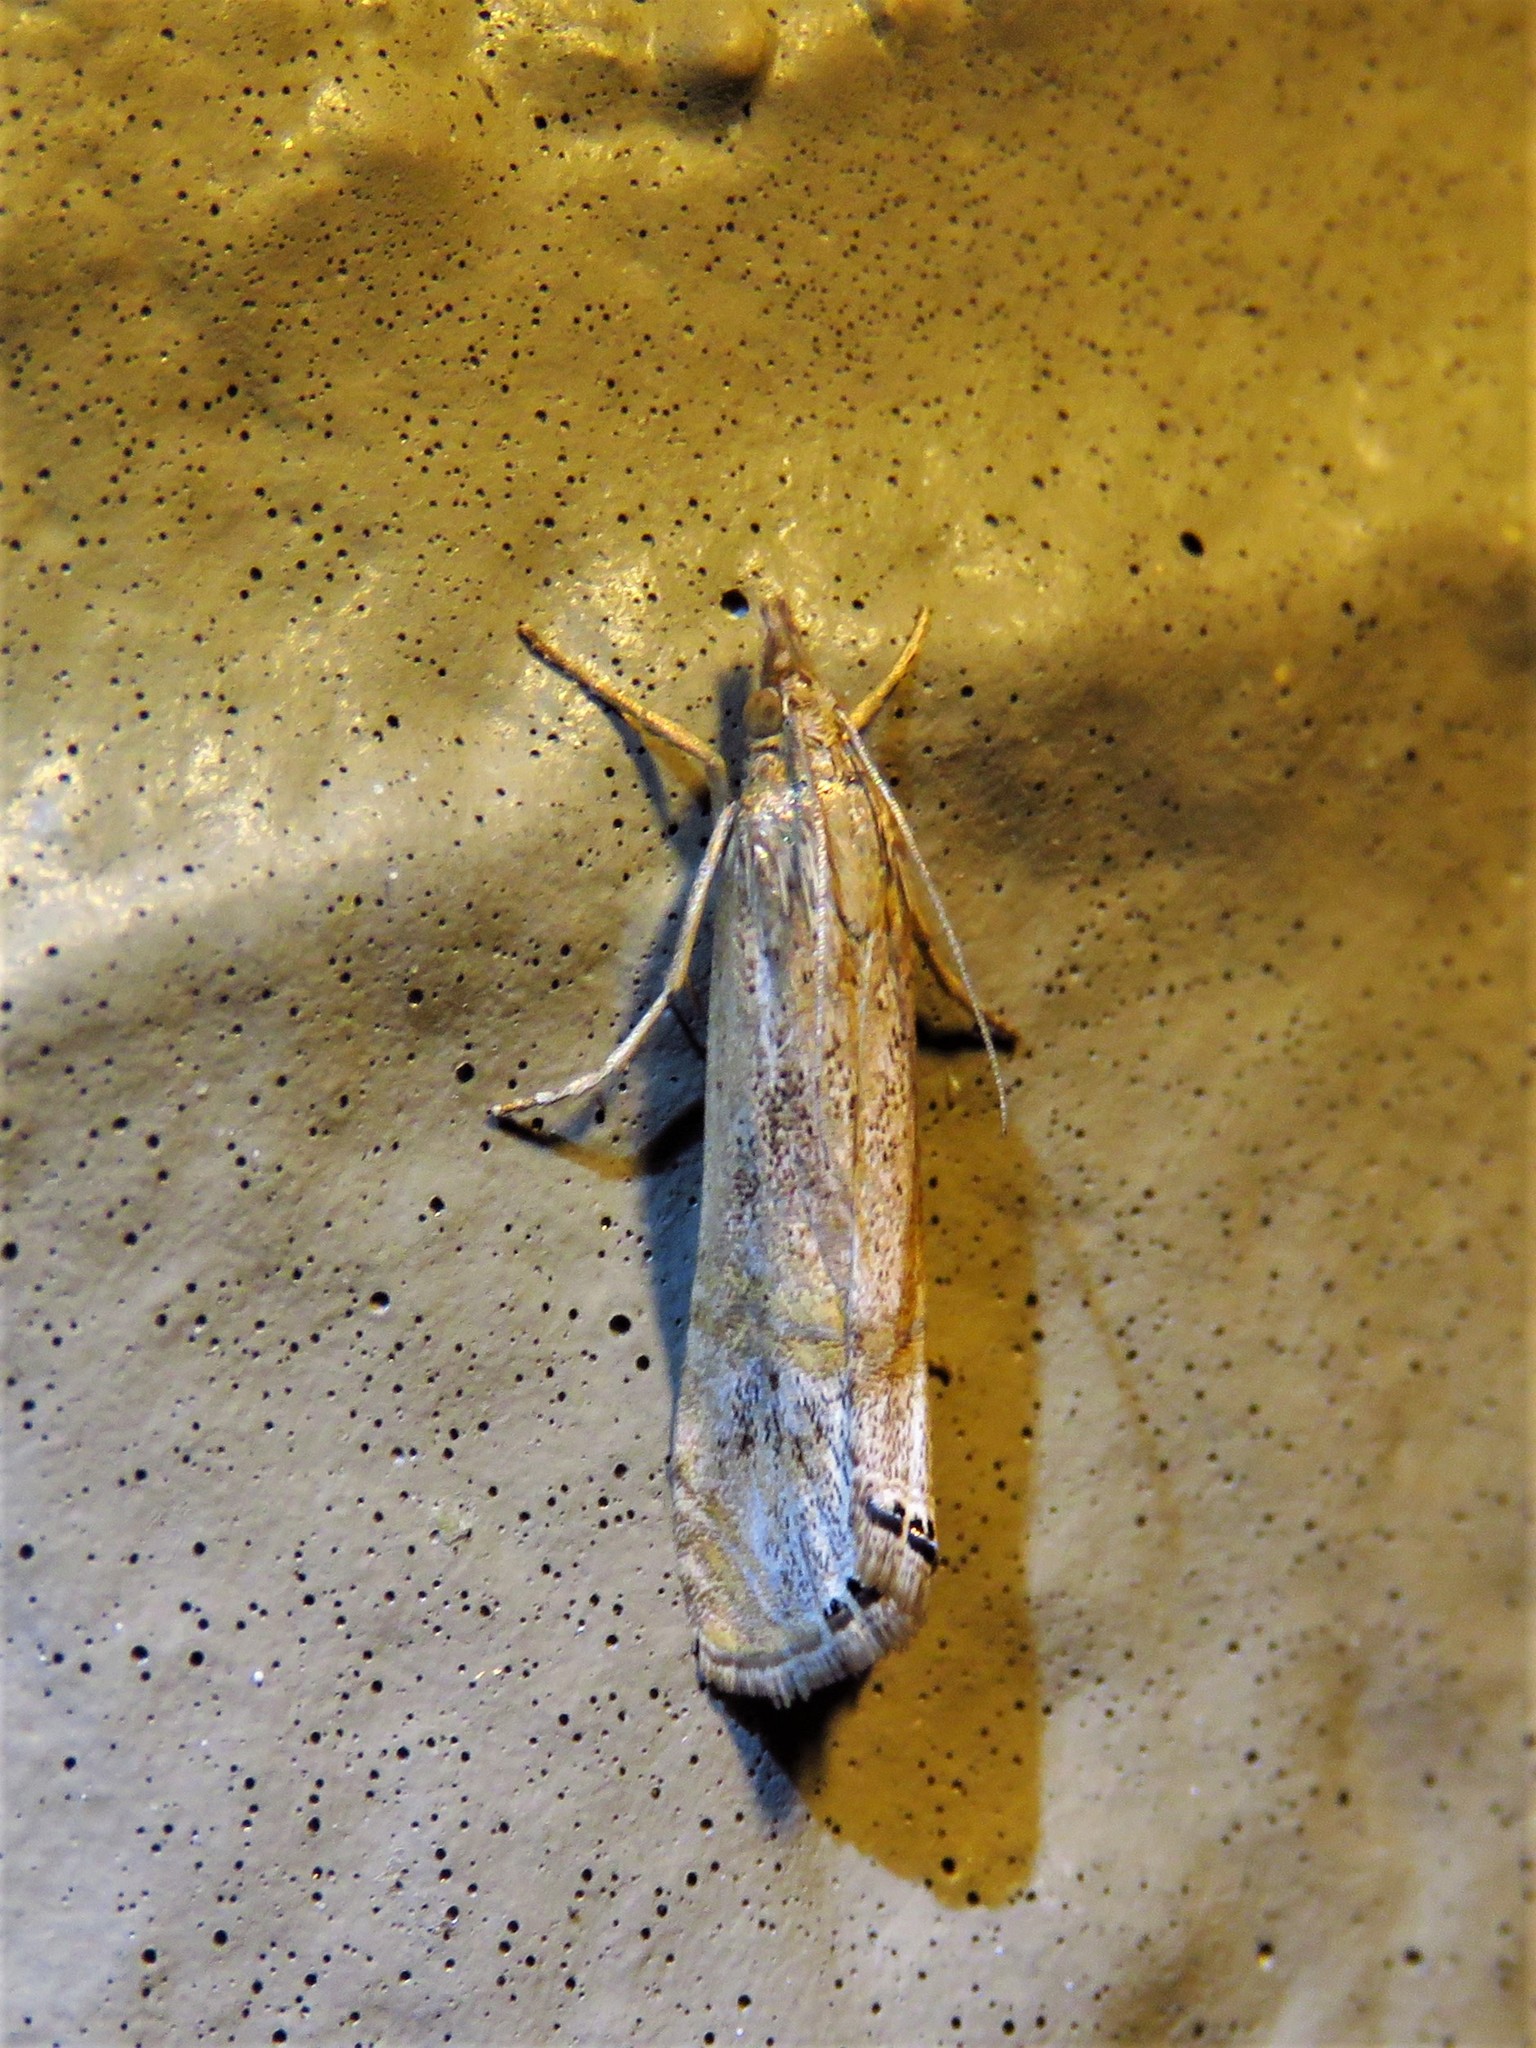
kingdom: Animalia
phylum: Arthropoda
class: Insecta
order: Lepidoptera
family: Crambidae
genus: Euchromius
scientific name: Euchromius ocellea
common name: Necklace veneer moth
